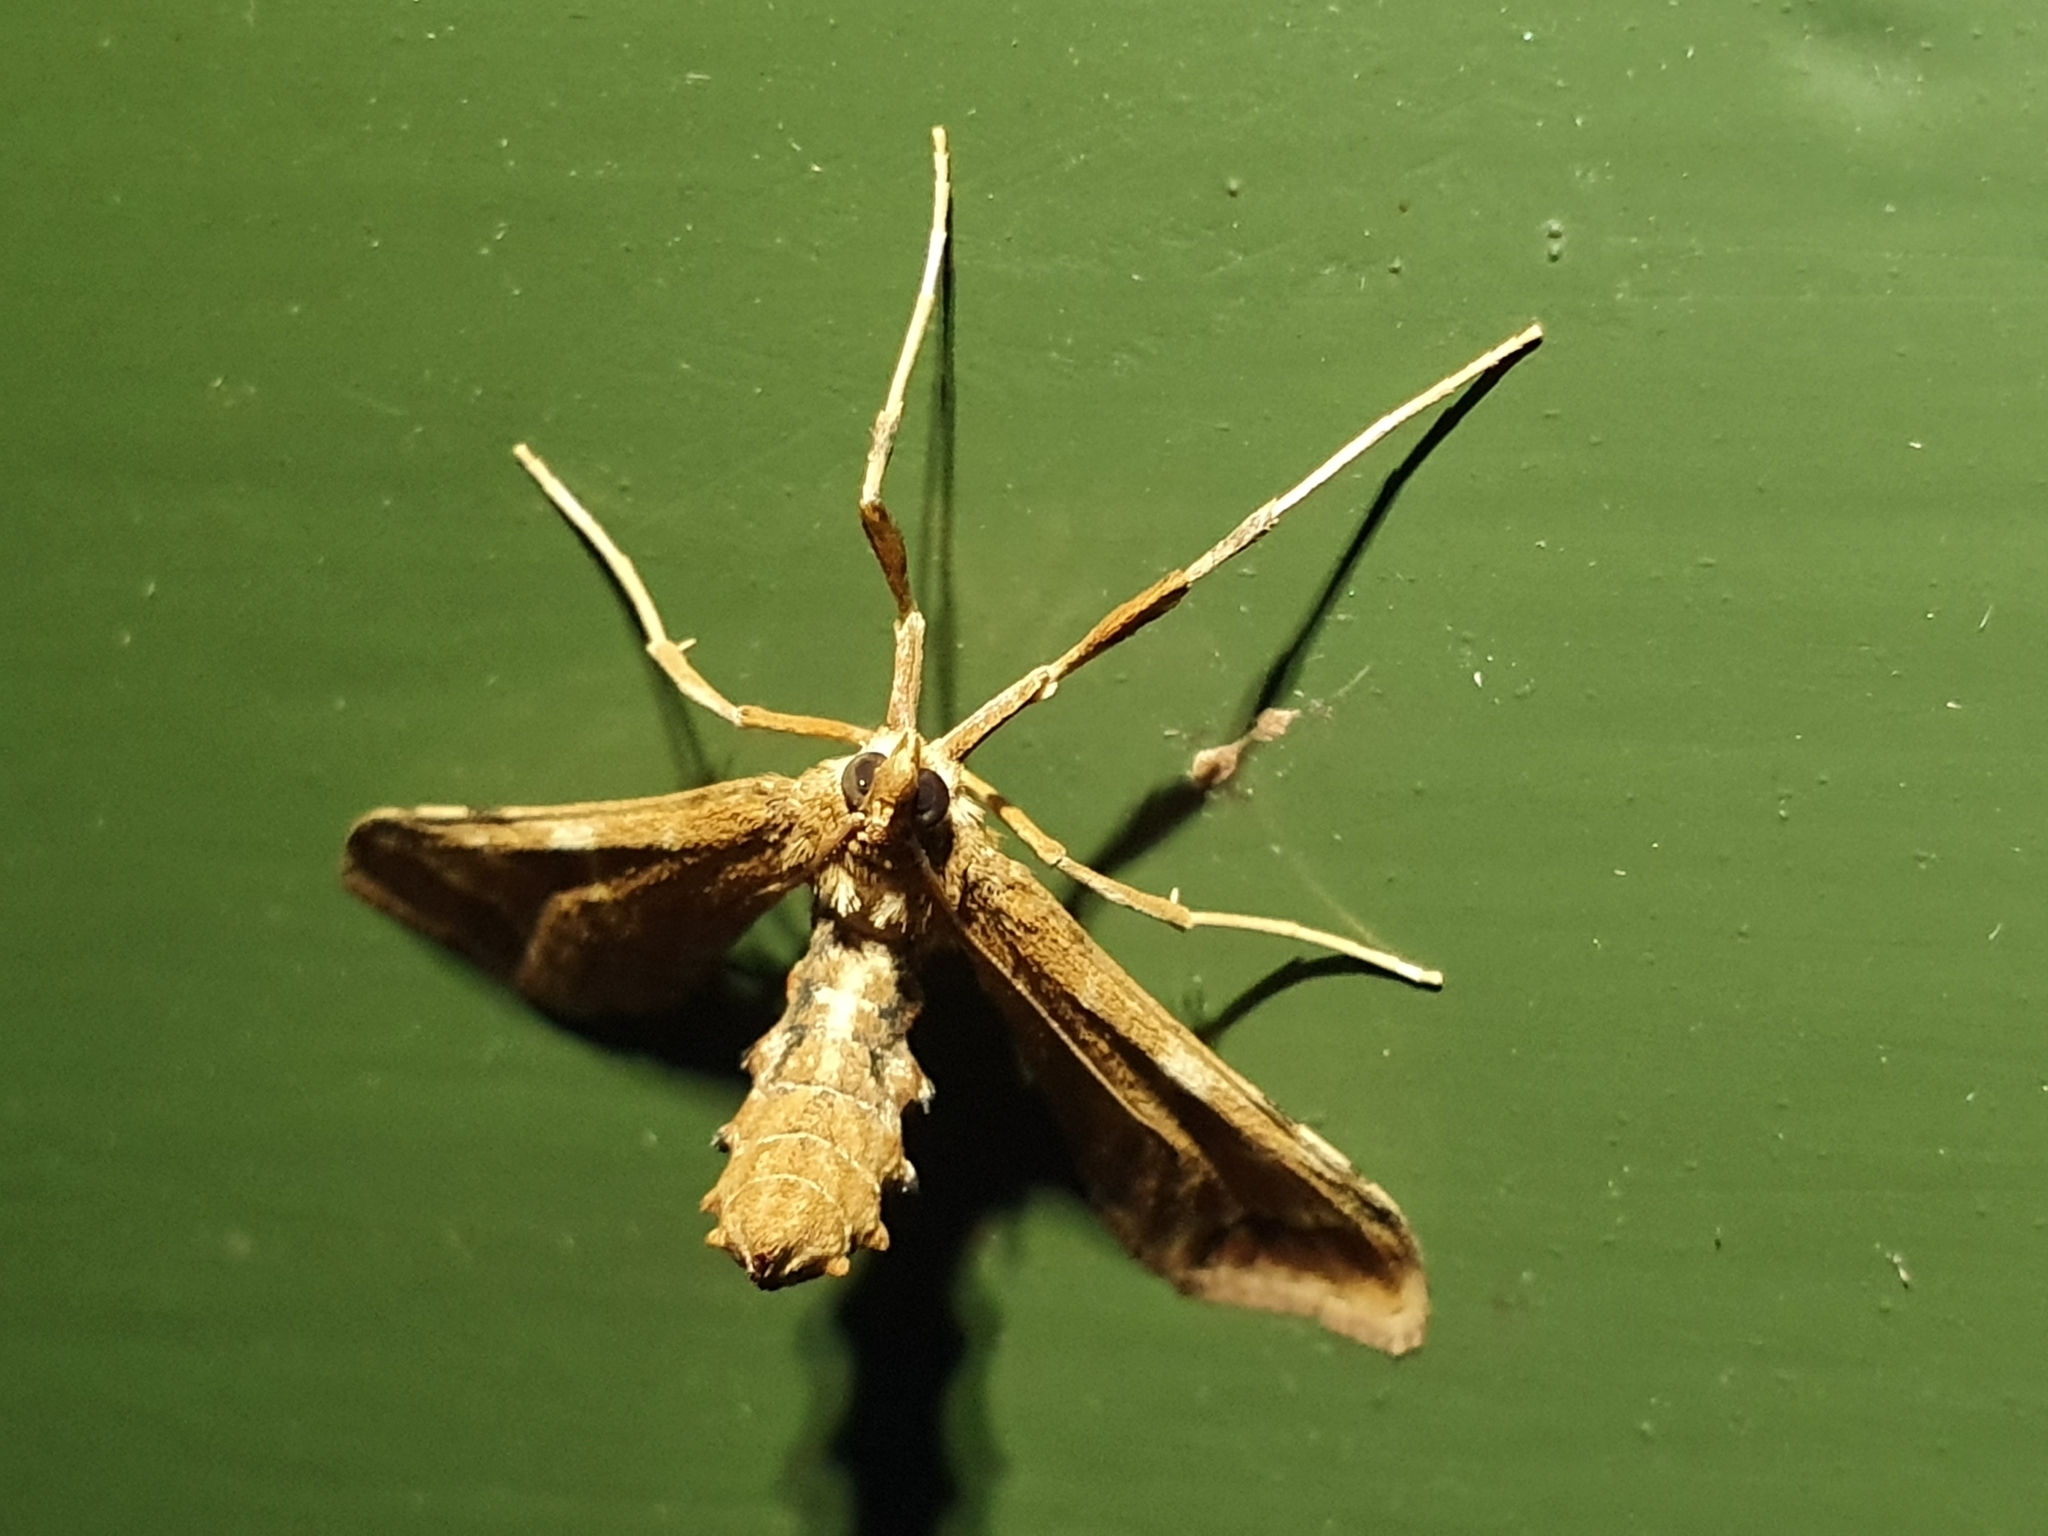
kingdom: Animalia
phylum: Arthropoda
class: Insecta
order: Lepidoptera
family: Crambidae
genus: Sceliodes
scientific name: Sceliodes cordalis
